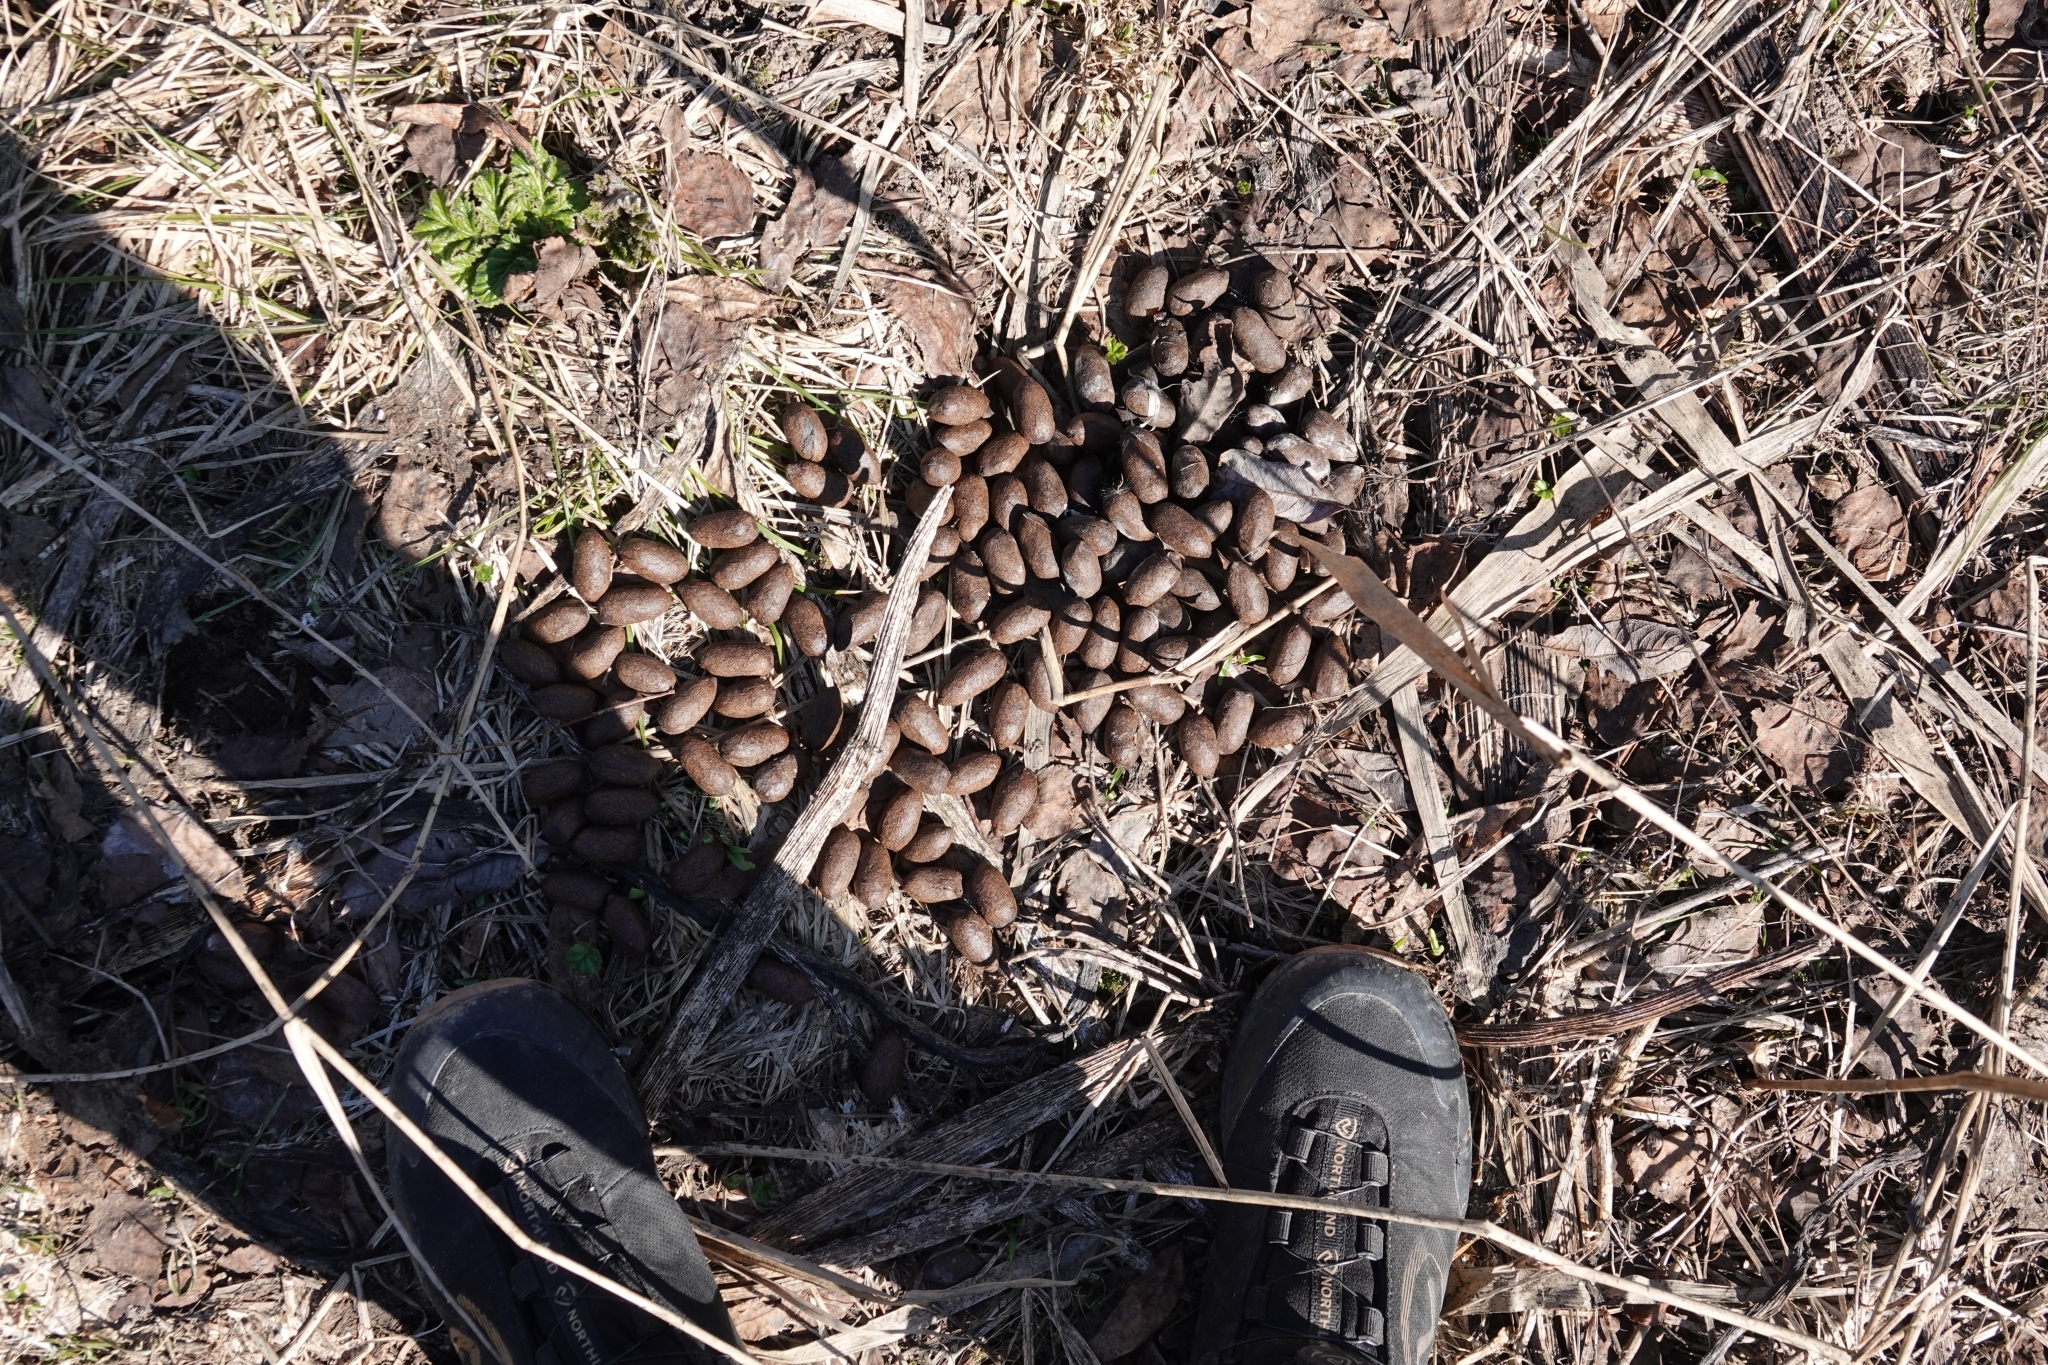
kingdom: Animalia
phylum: Chordata
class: Mammalia
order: Artiodactyla
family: Cervidae
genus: Alces
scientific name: Alces alces
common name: Moose
